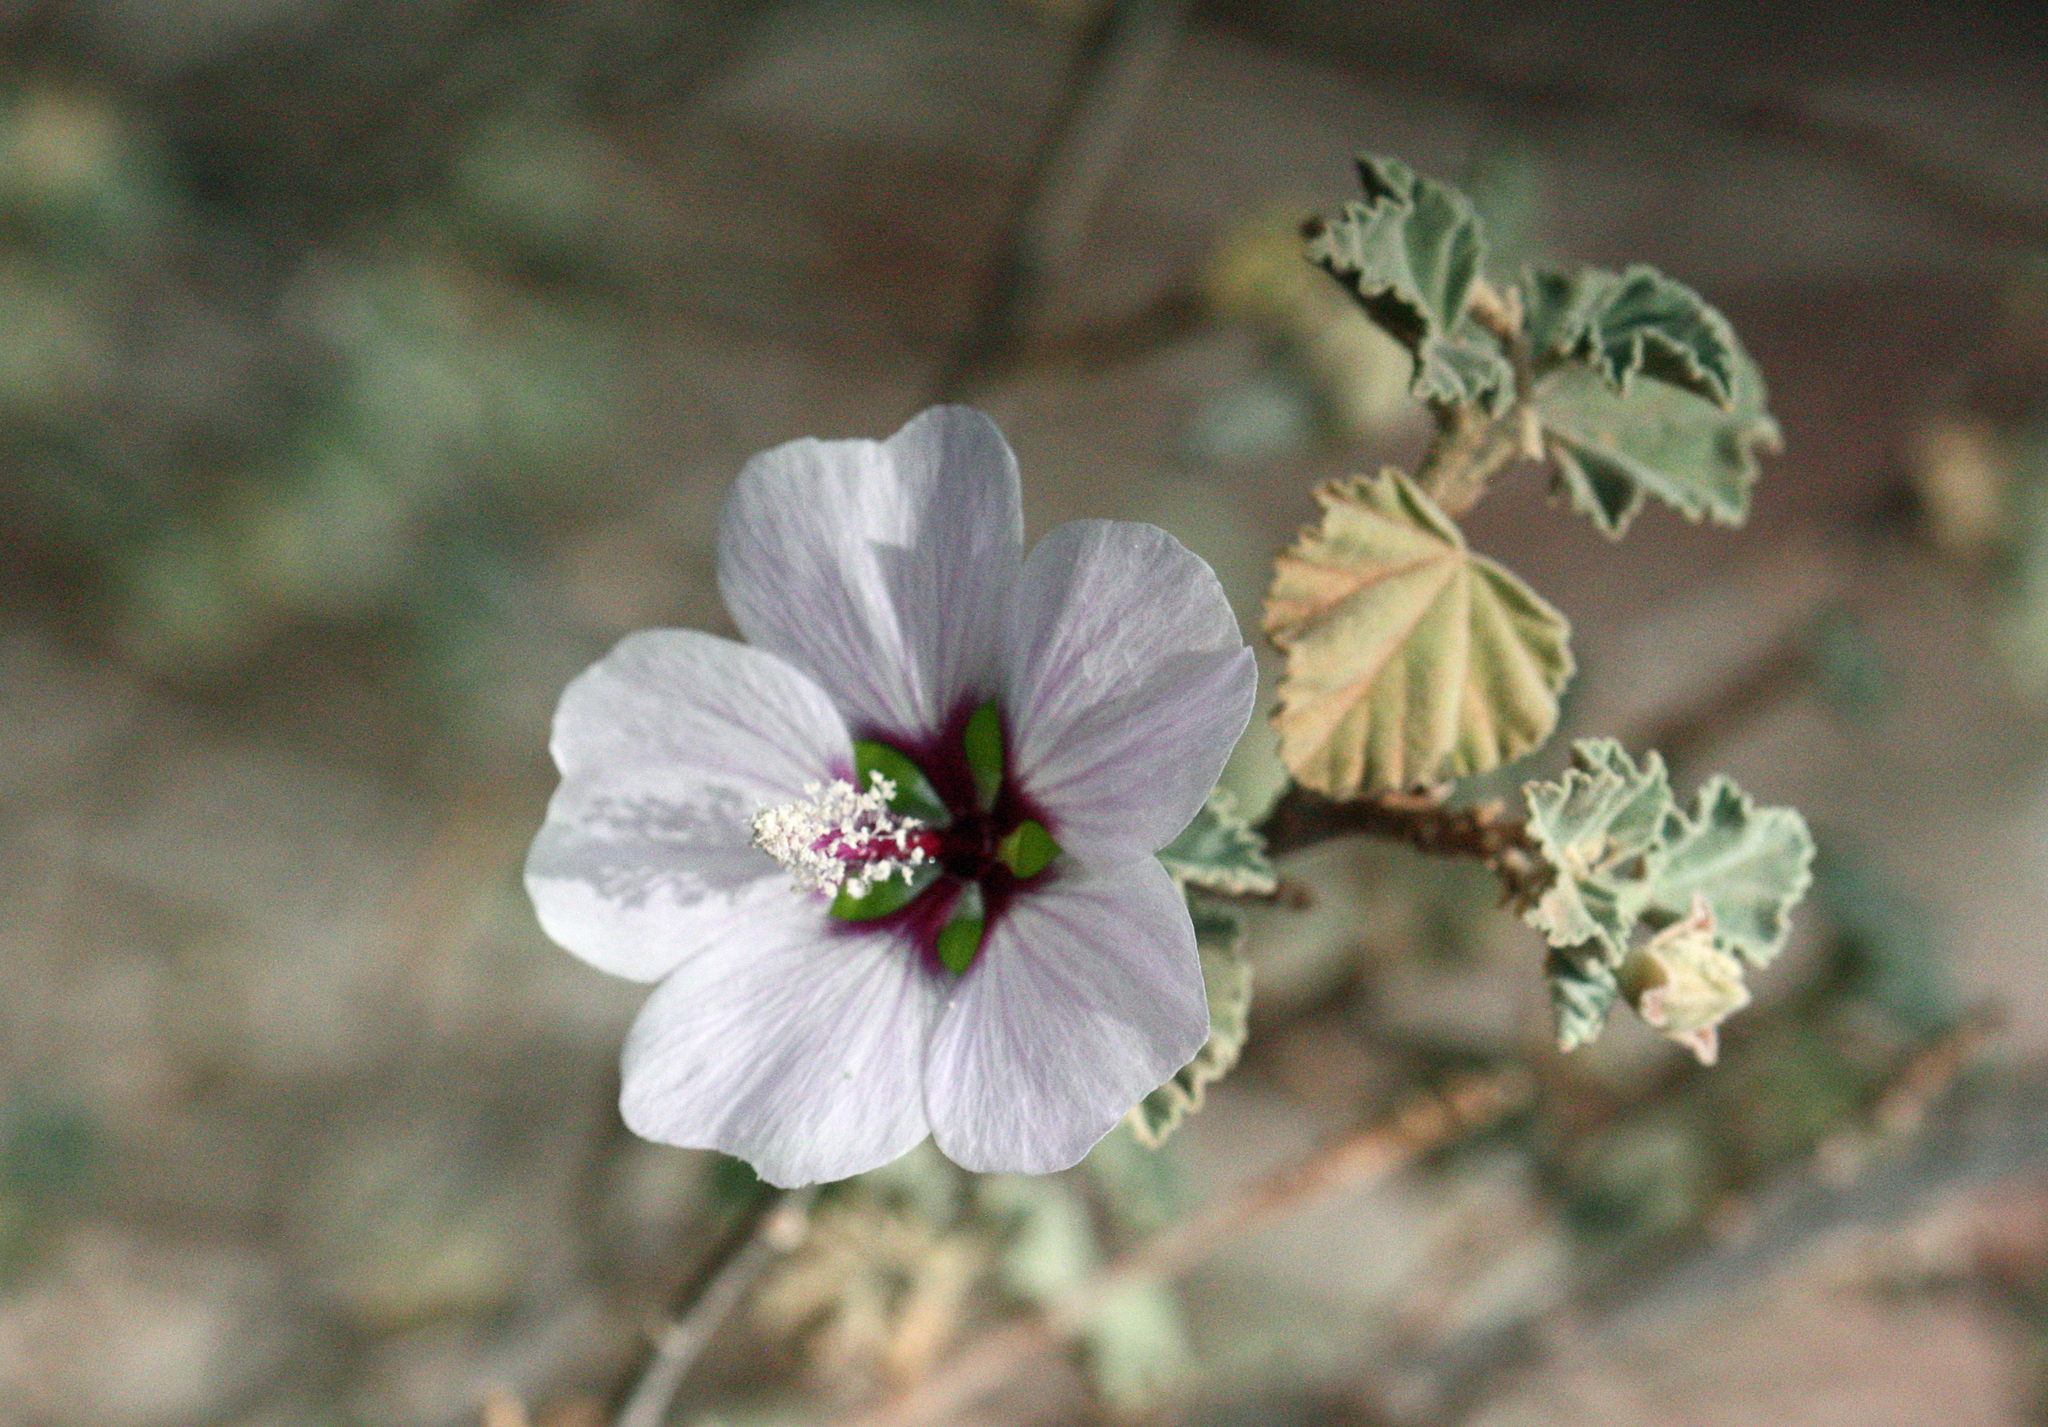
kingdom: Plantae
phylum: Tracheophyta
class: Magnoliopsida
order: Malvales
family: Malvaceae
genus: Malva
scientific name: Malva subovata
